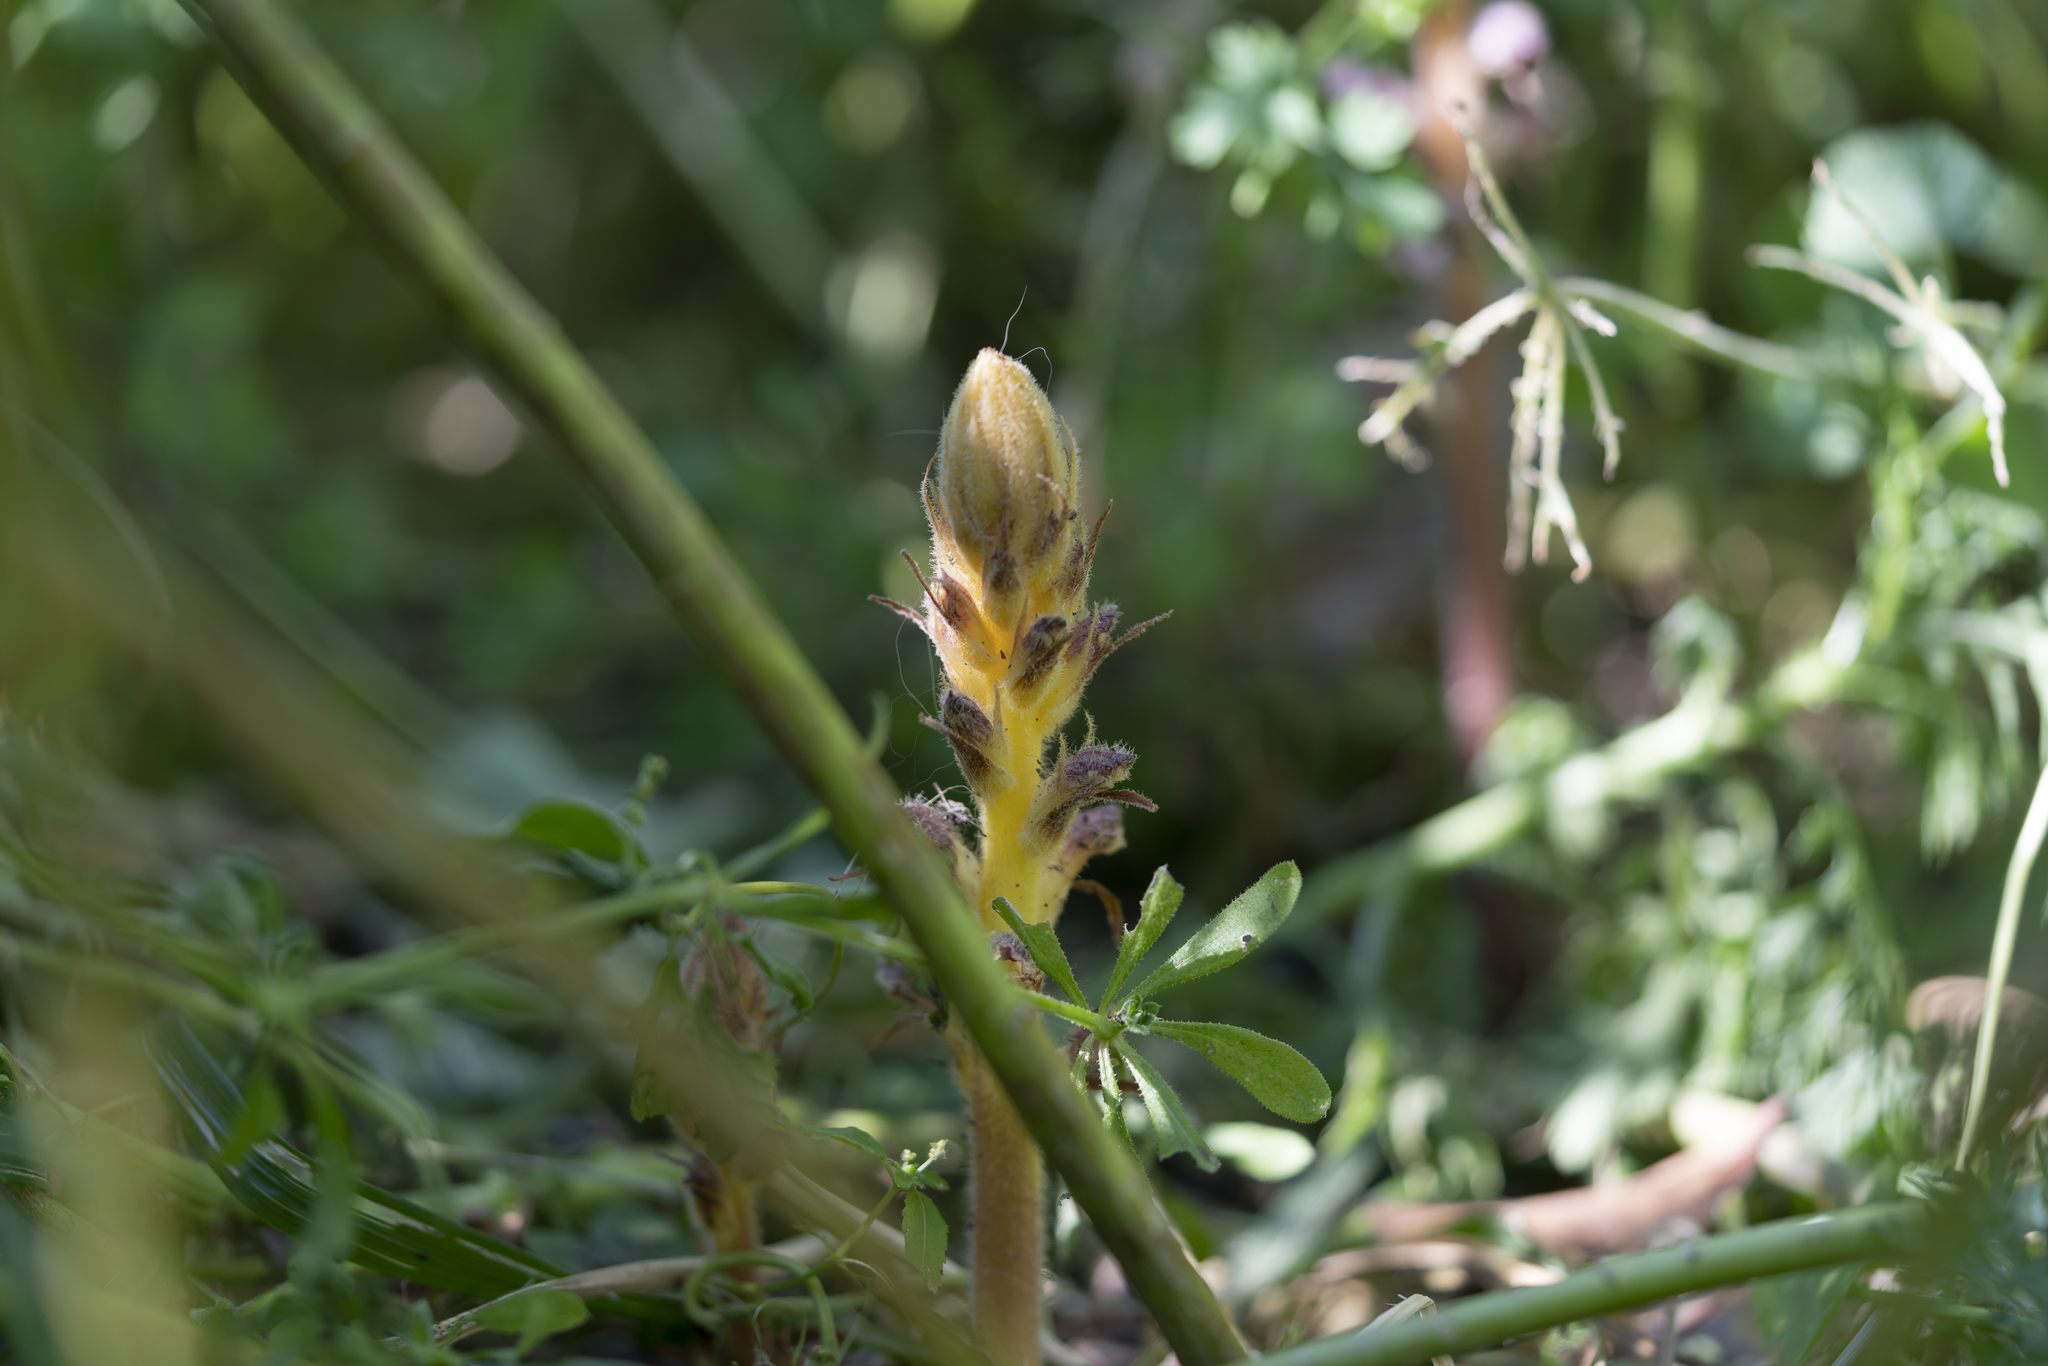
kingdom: Plantae
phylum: Tracheophyta
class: Magnoliopsida
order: Lamiales
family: Orobanchaceae
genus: Orobanche
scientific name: Orobanche pubescens
